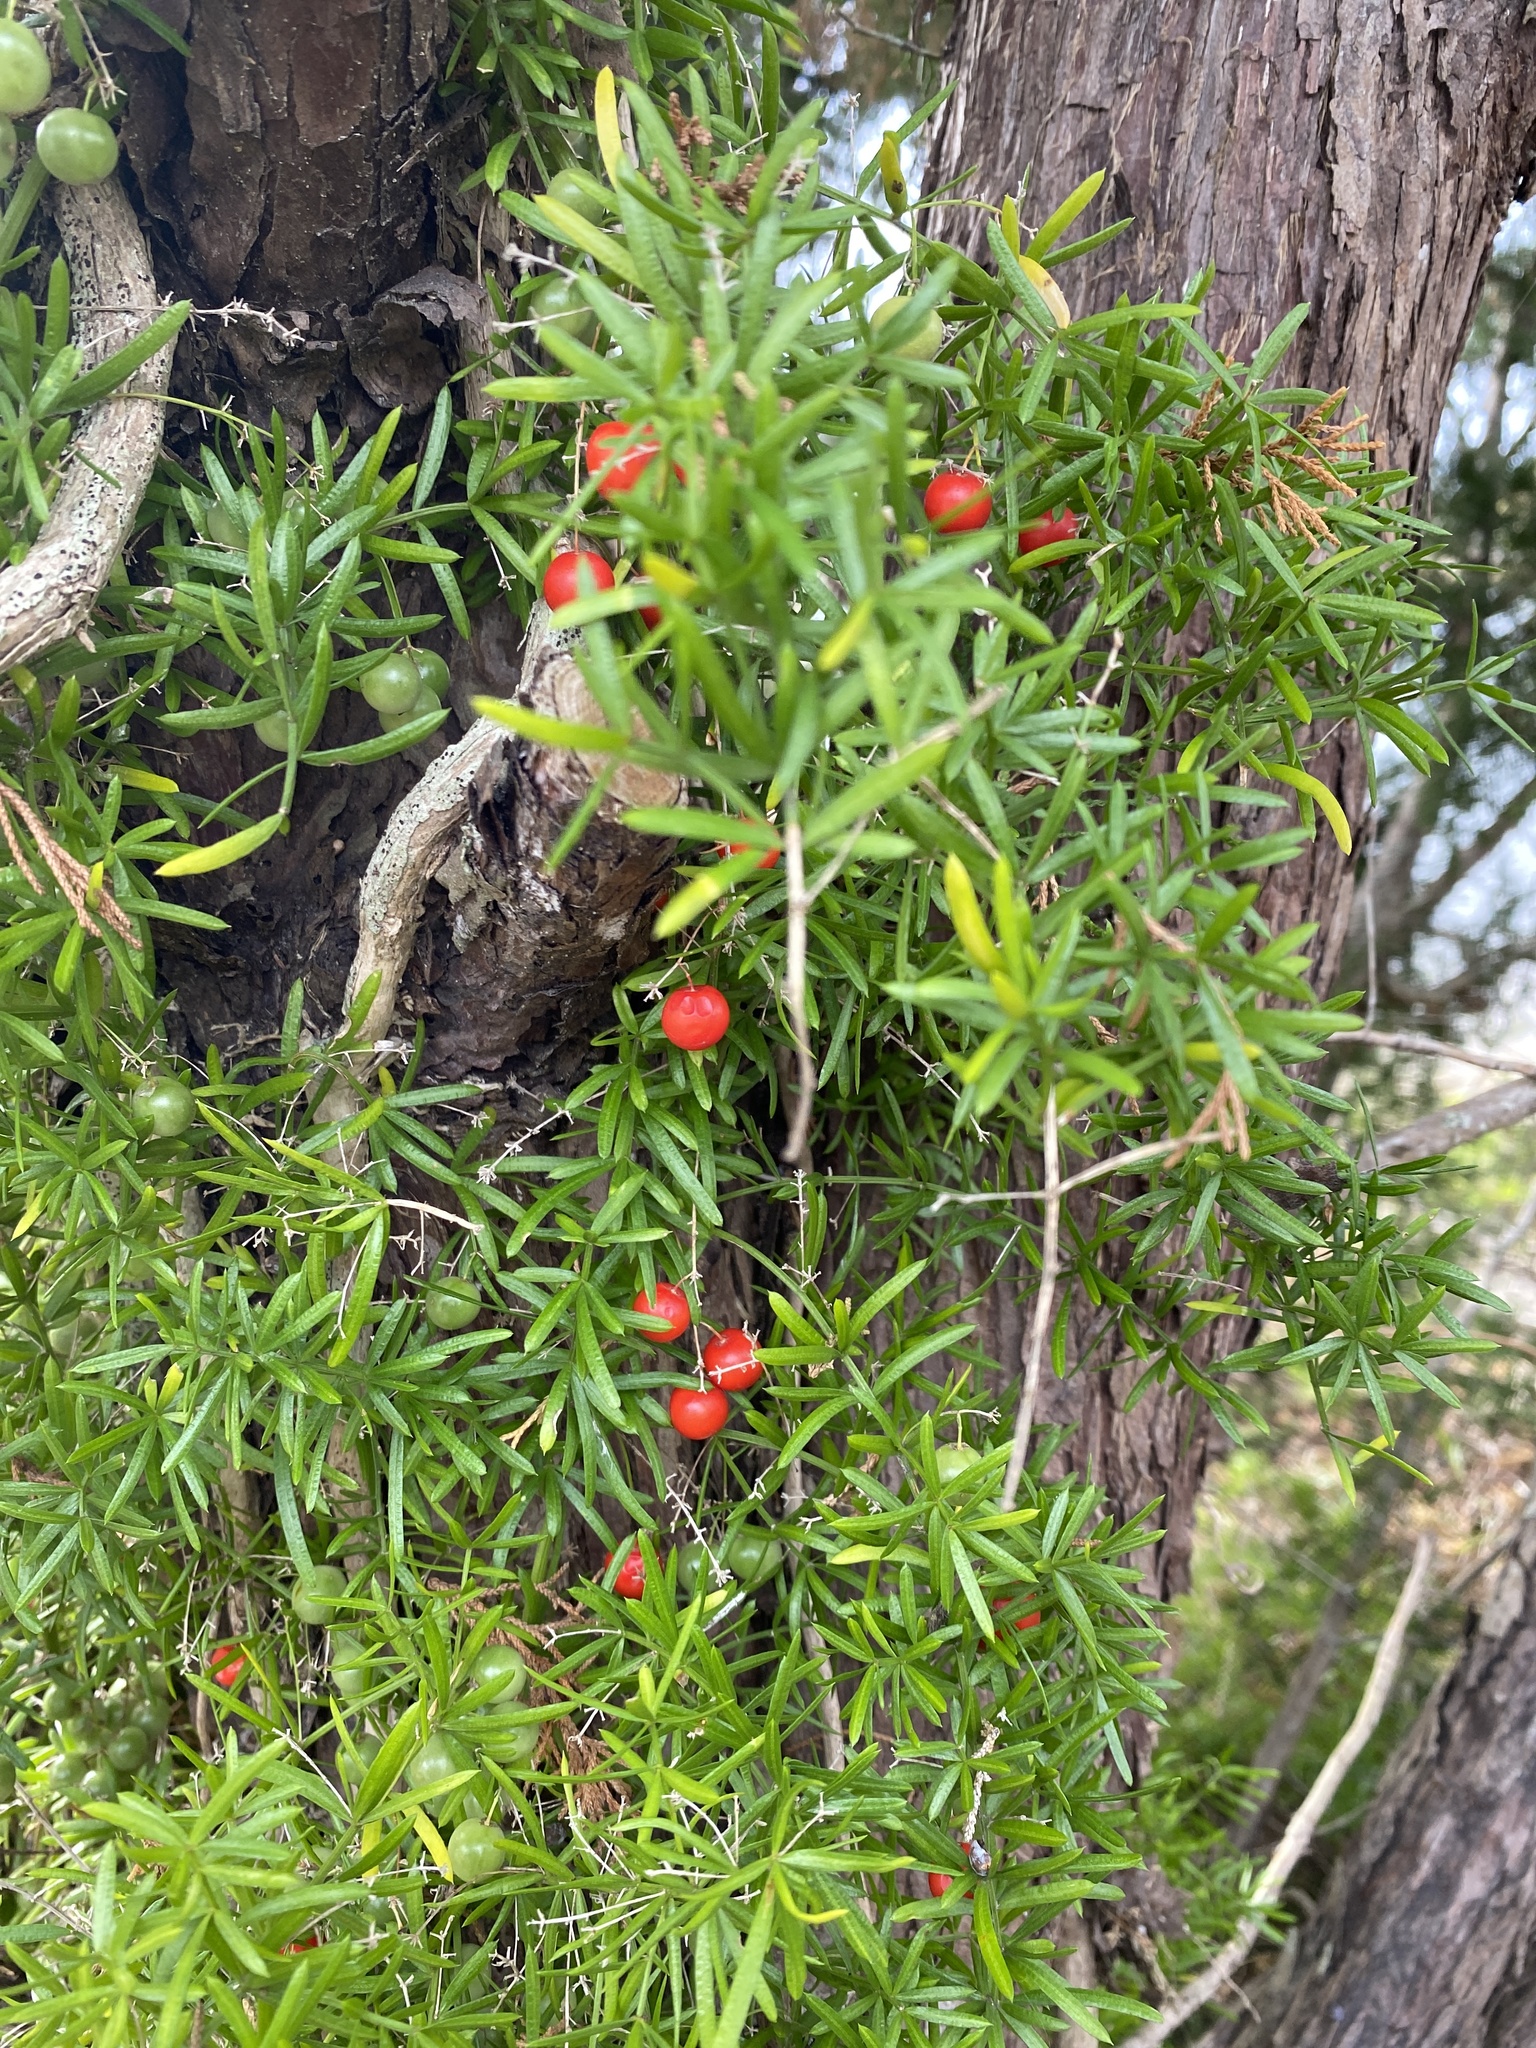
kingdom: Plantae
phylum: Tracheophyta
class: Liliopsida
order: Asparagales
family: Asparagaceae
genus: Asparagus
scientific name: Asparagus aethiopicus
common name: Sprenger's asparagus fern
